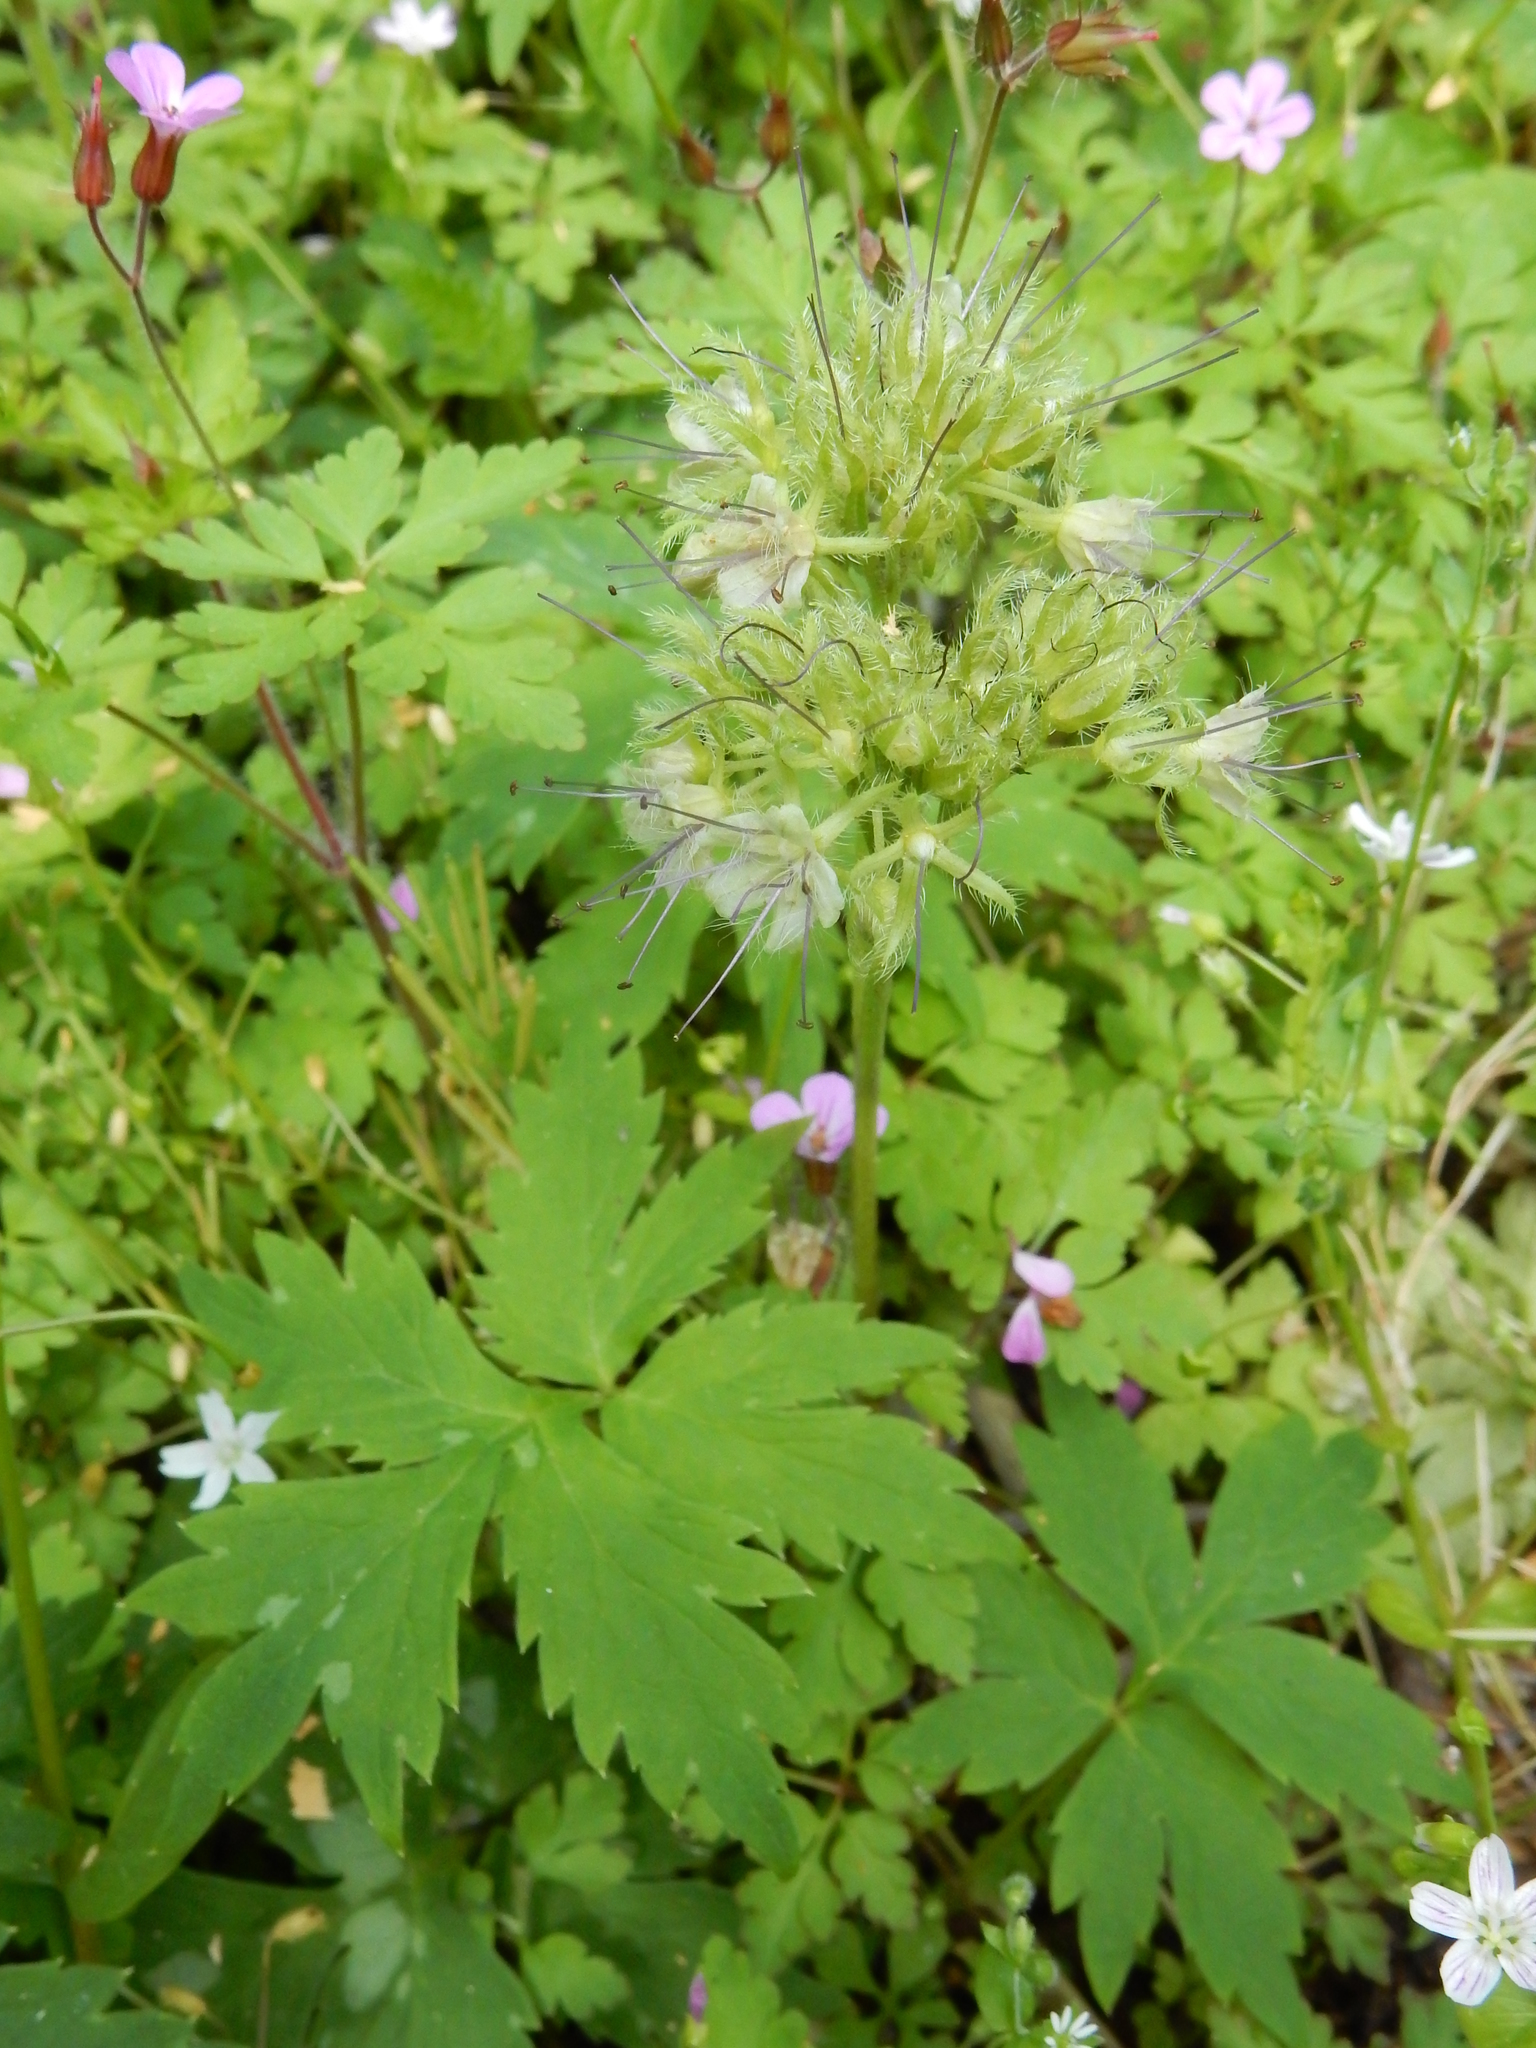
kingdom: Plantae
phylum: Tracheophyta
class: Magnoliopsida
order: Boraginales
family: Hydrophyllaceae
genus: Hydrophyllum
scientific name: Hydrophyllum tenuipes
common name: Pacific waterleaf
